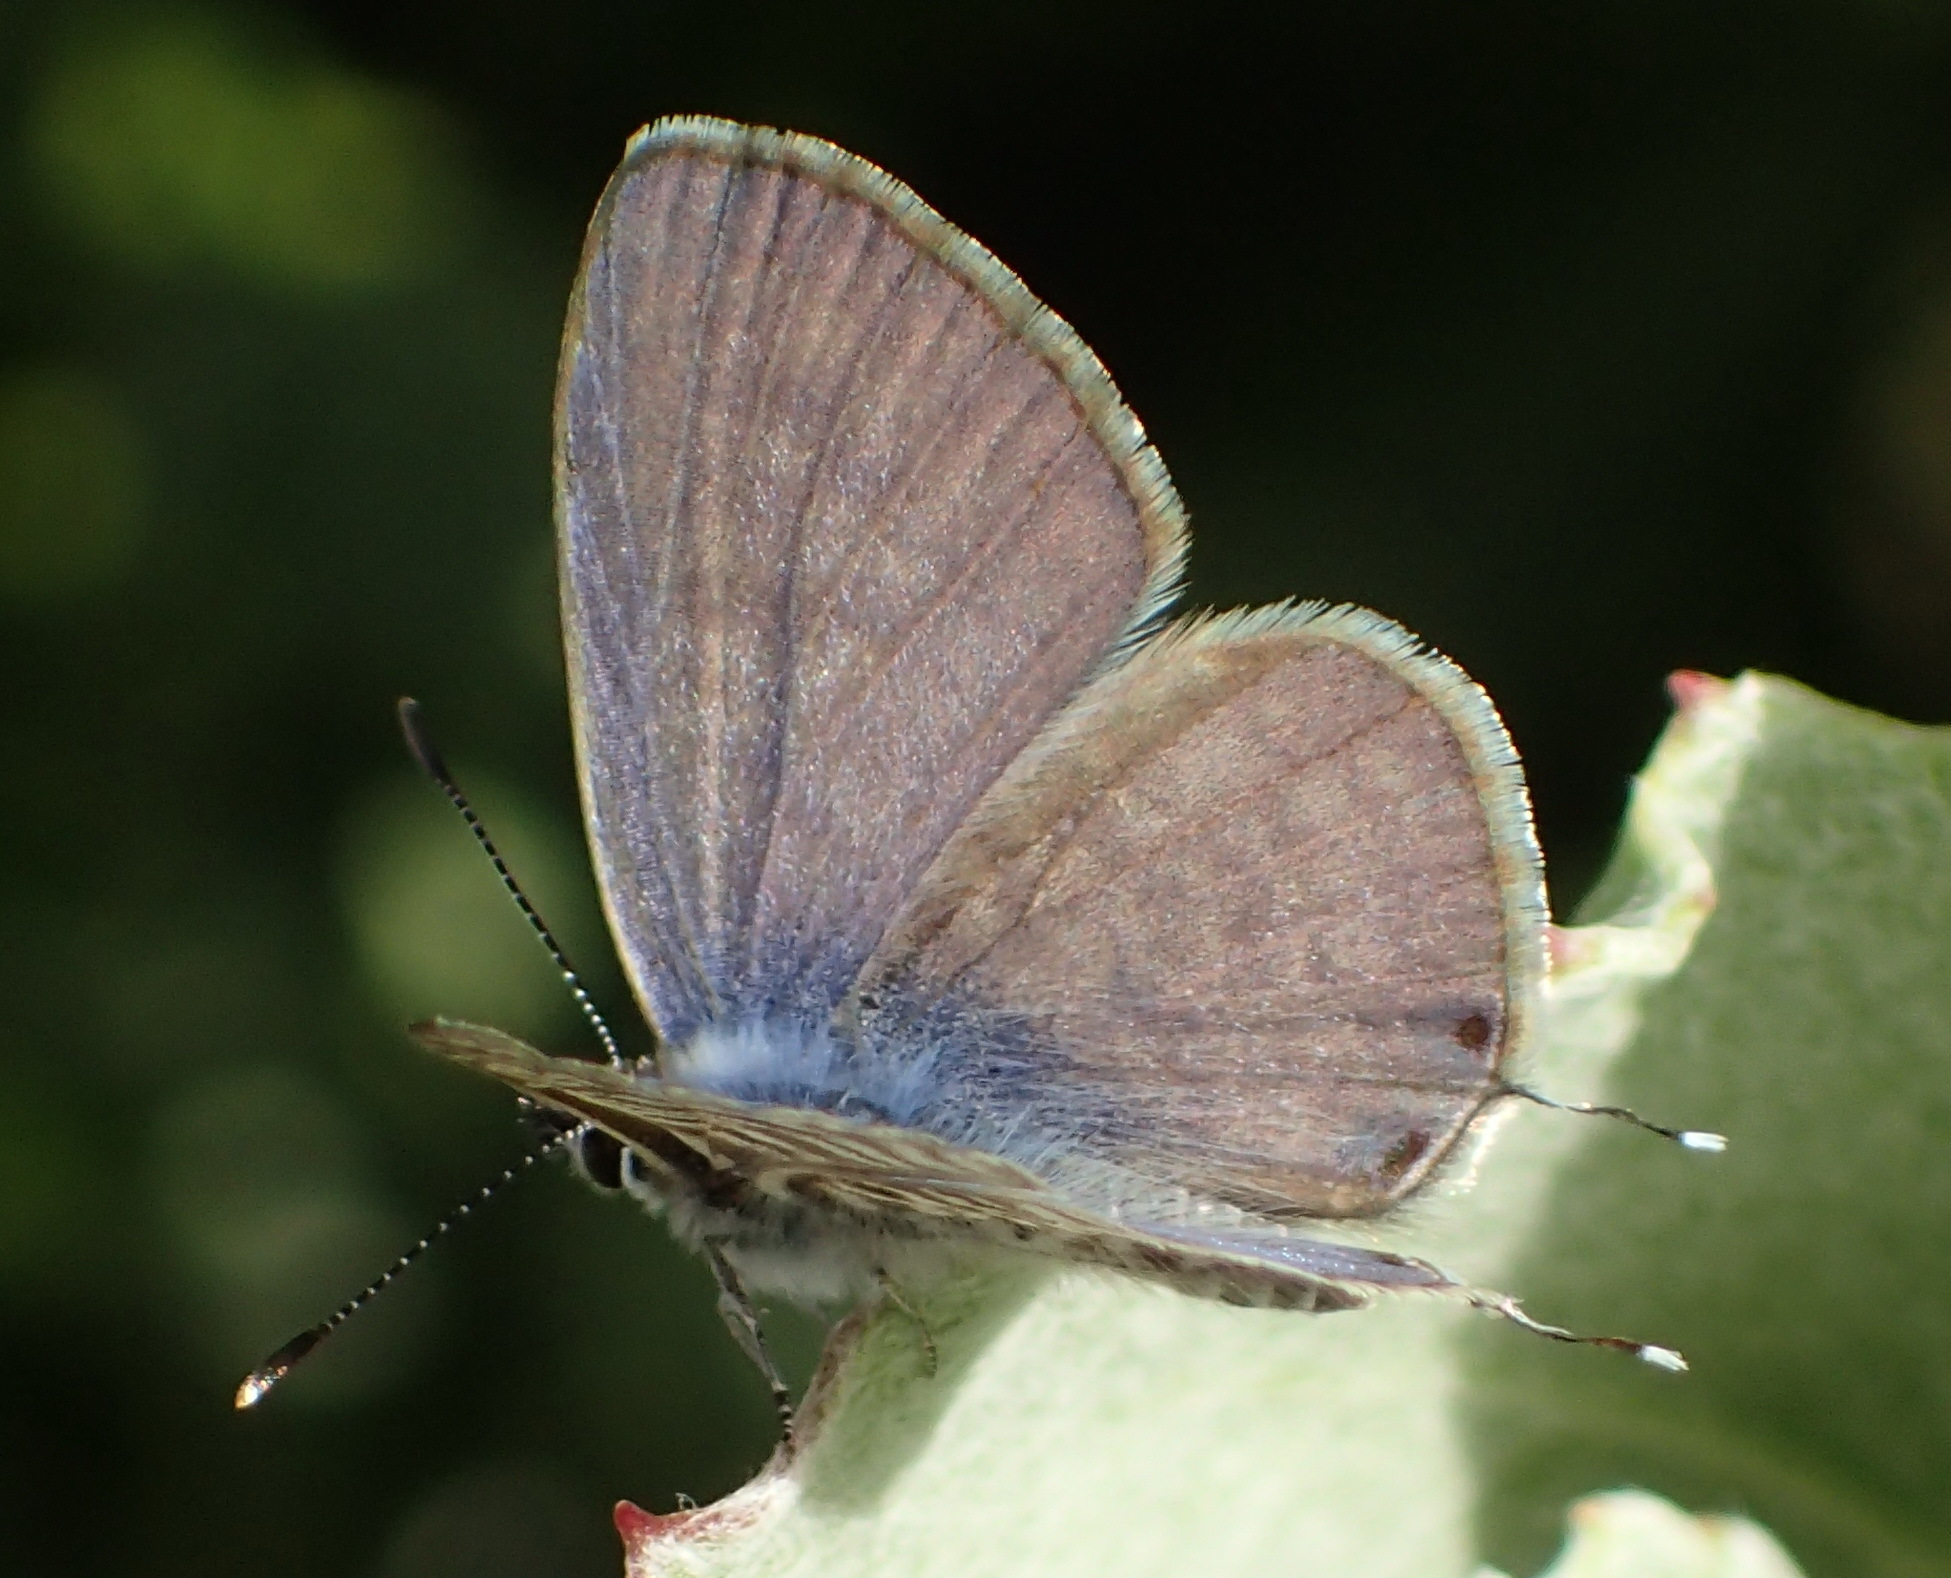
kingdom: Animalia
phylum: Arthropoda
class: Insecta
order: Lepidoptera
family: Lycaenidae
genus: Leptotes
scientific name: Leptotes
